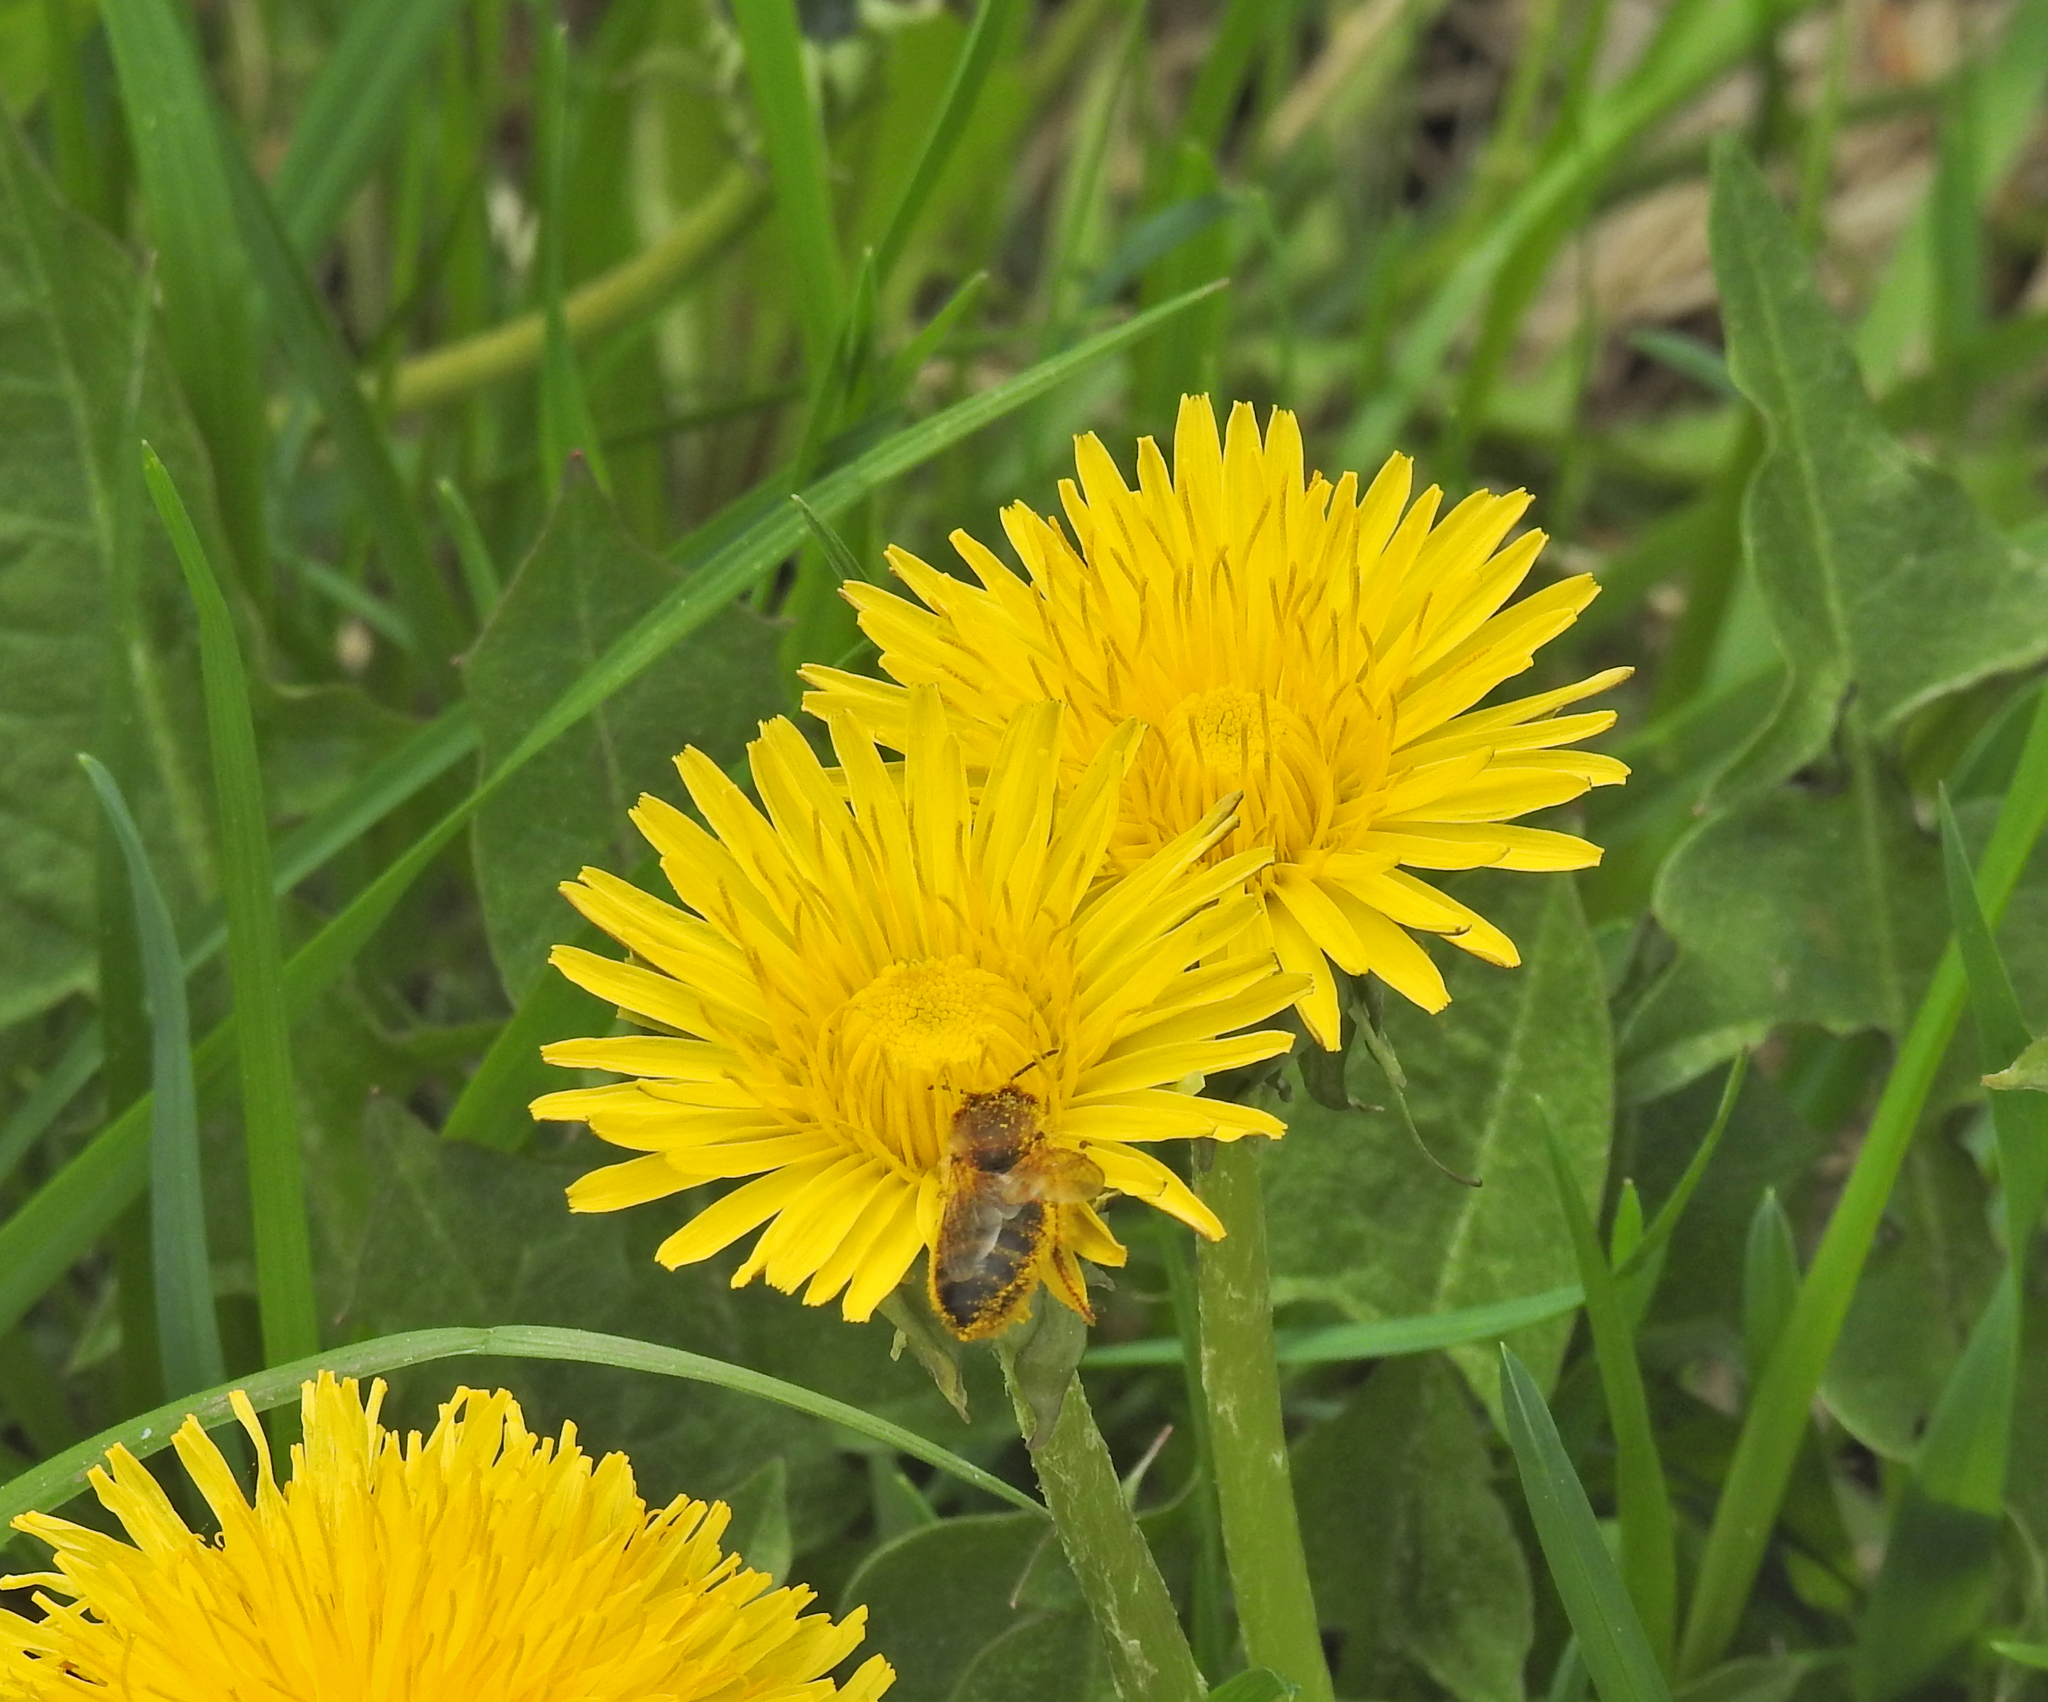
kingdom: Animalia
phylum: Arthropoda
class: Insecta
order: Hymenoptera
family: Apidae
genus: Apis
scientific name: Apis mellifera
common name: Honey bee
